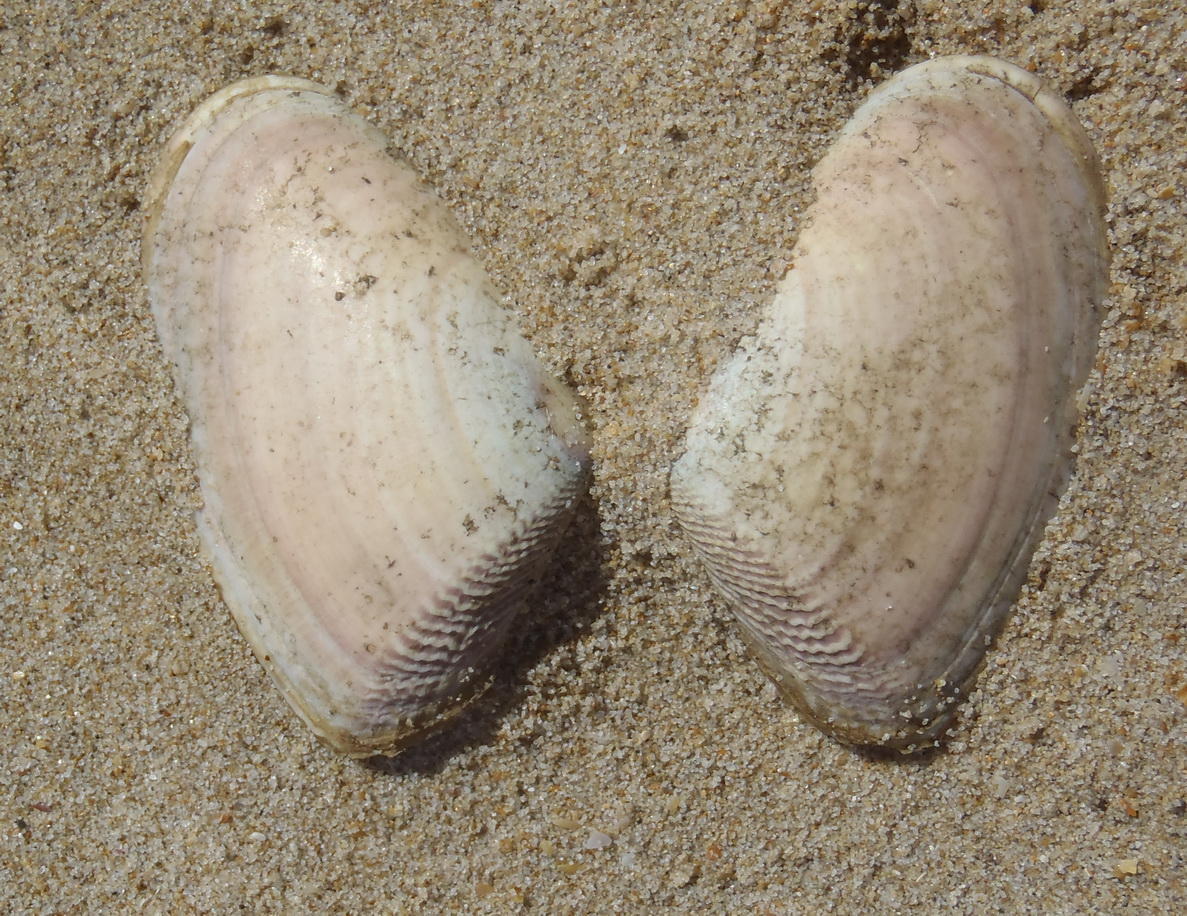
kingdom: Animalia
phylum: Mollusca
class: Bivalvia
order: Cardiida
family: Donacidae
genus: Donax
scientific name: Donax serra
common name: Giant south african wedge clam
